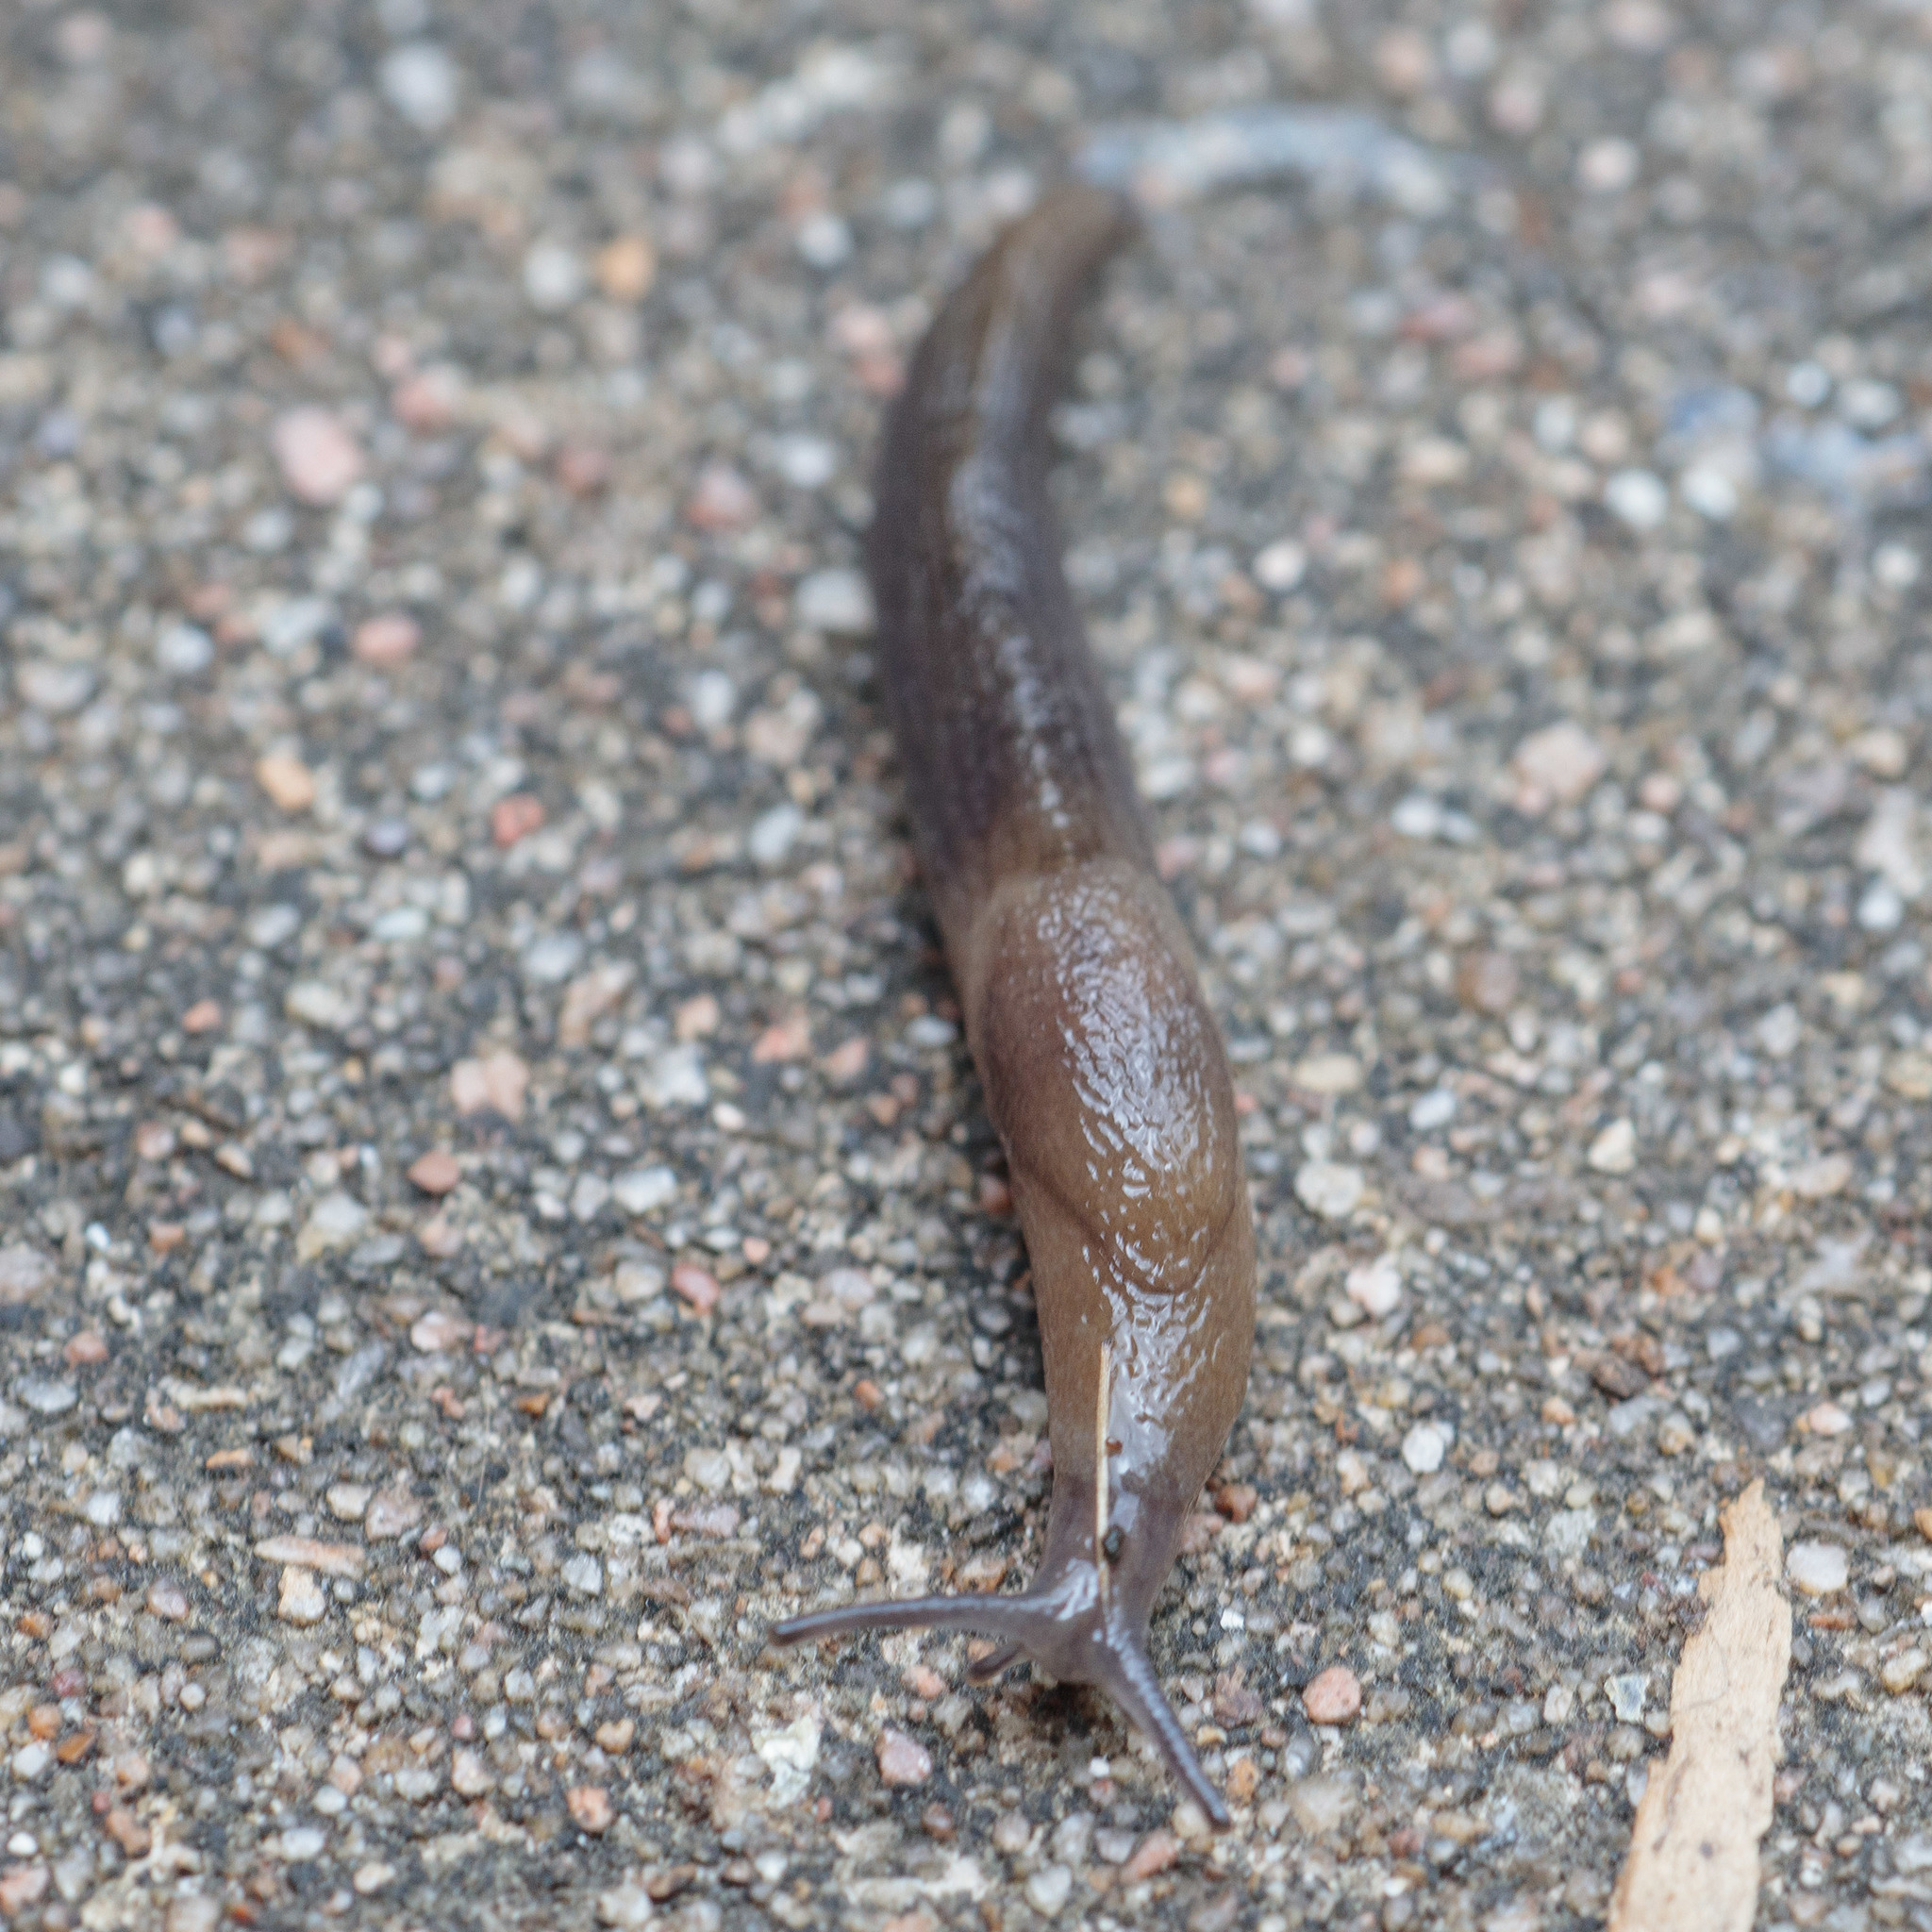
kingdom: Animalia
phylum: Mollusca
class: Gastropoda
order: Stylommatophora
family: Milacidae
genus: Milax
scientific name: Milax gagates
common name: Greenhouse slug
